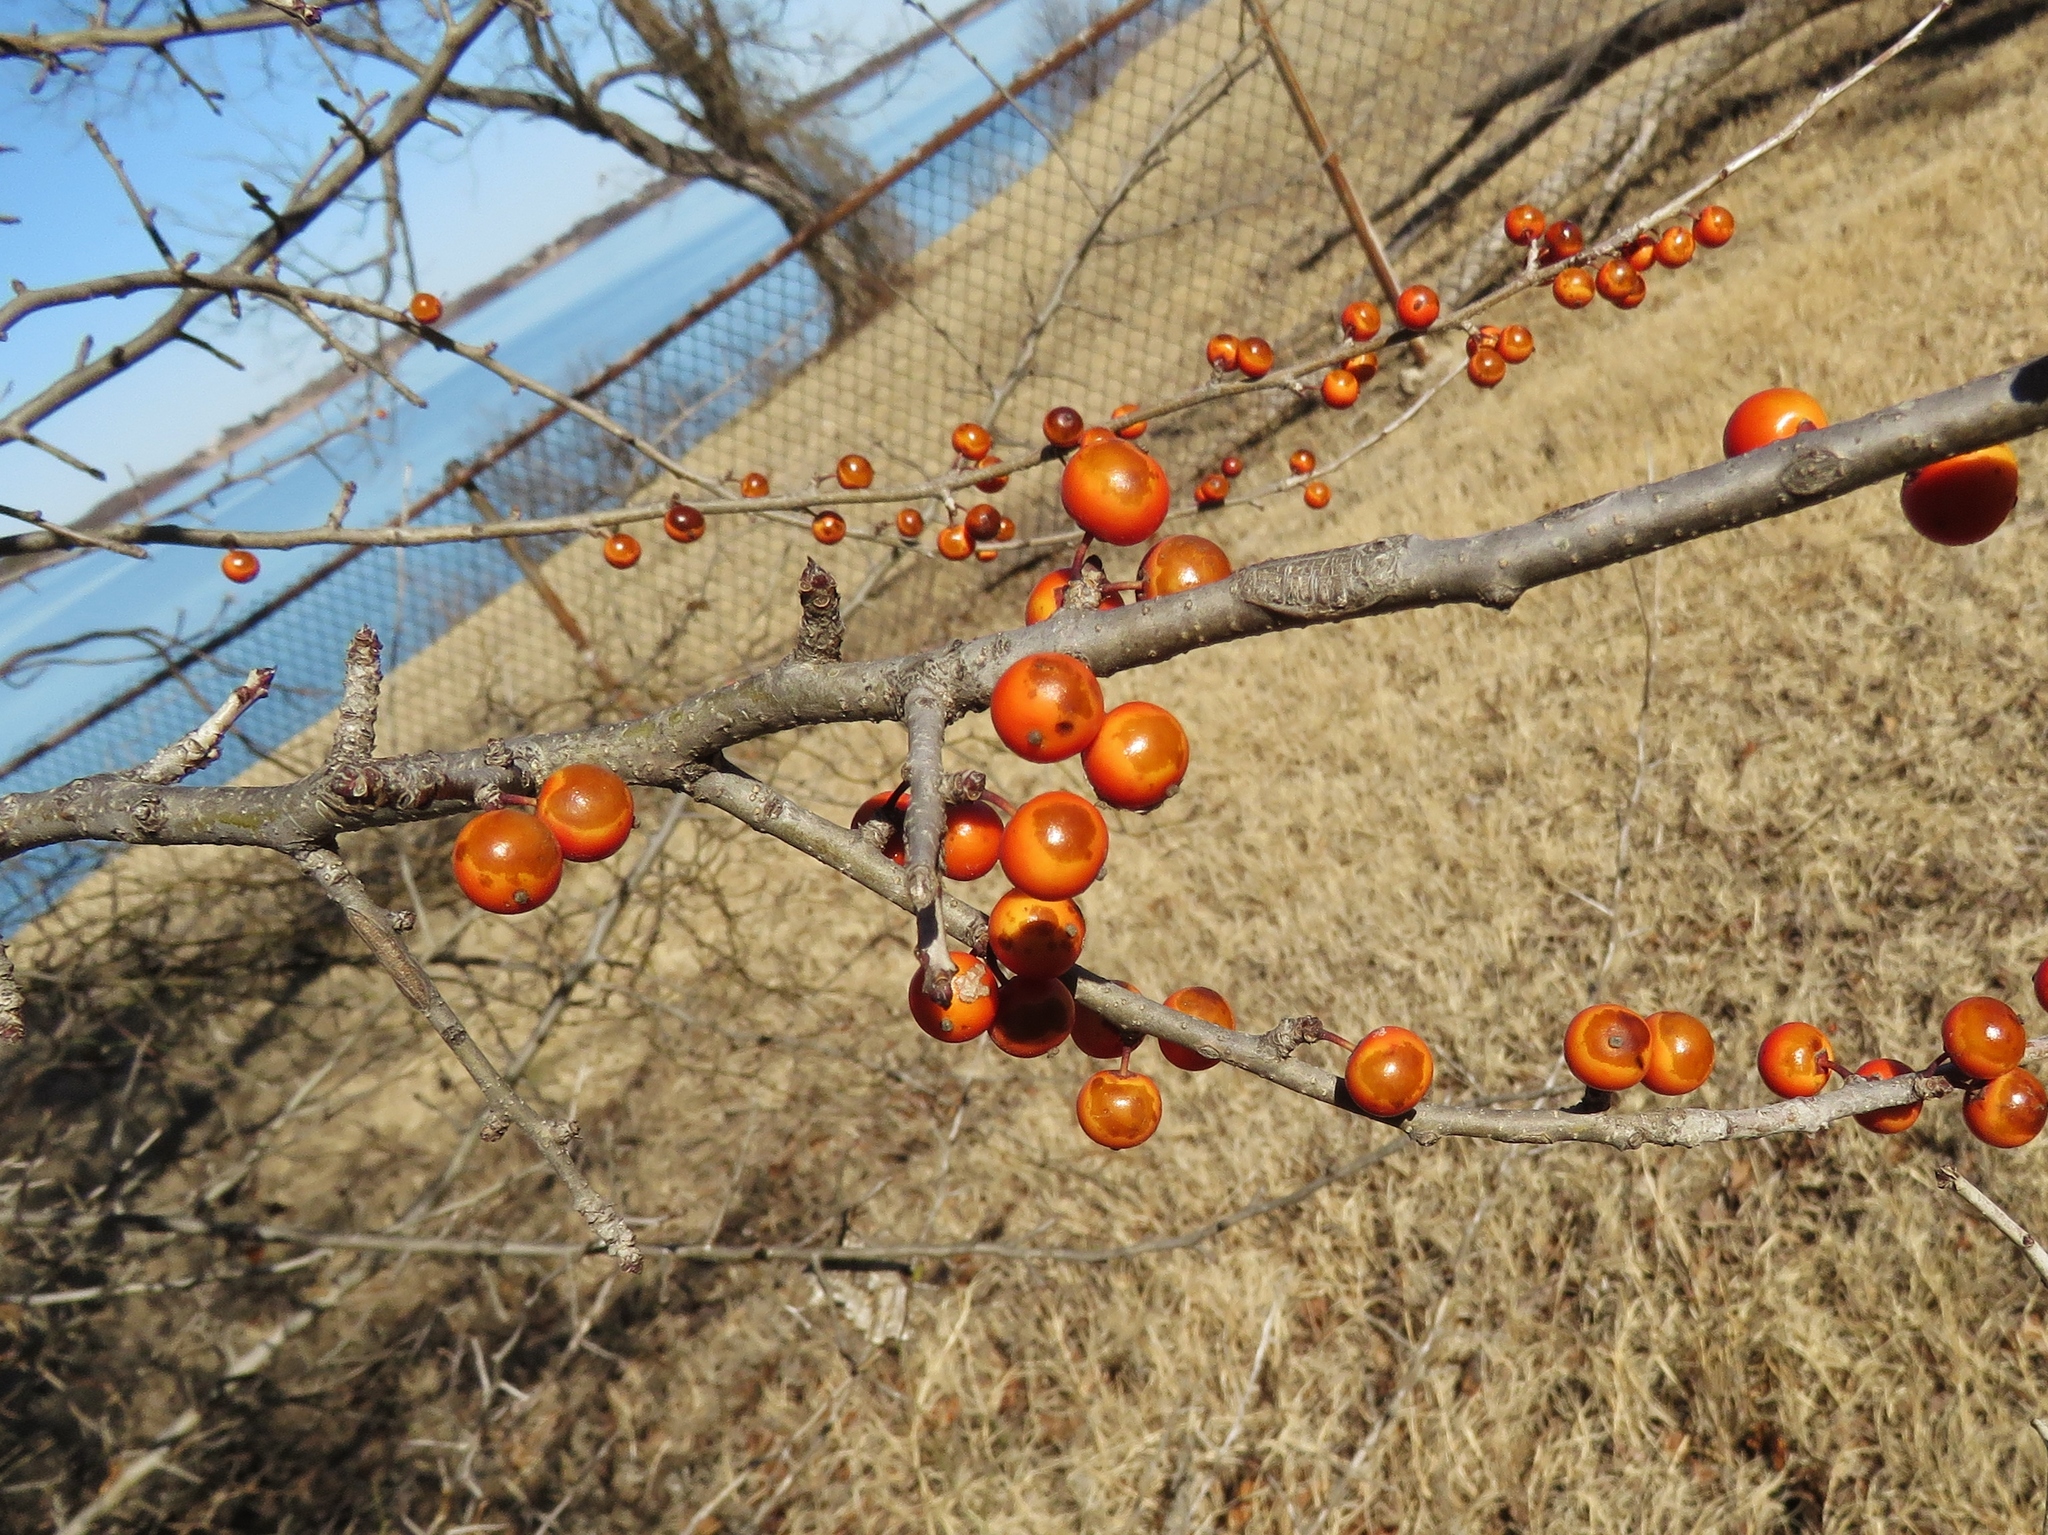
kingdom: Plantae
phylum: Tracheophyta
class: Magnoliopsida
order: Aquifoliales
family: Aquifoliaceae
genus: Ilex
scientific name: Ilex decidua
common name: Possum-haw
